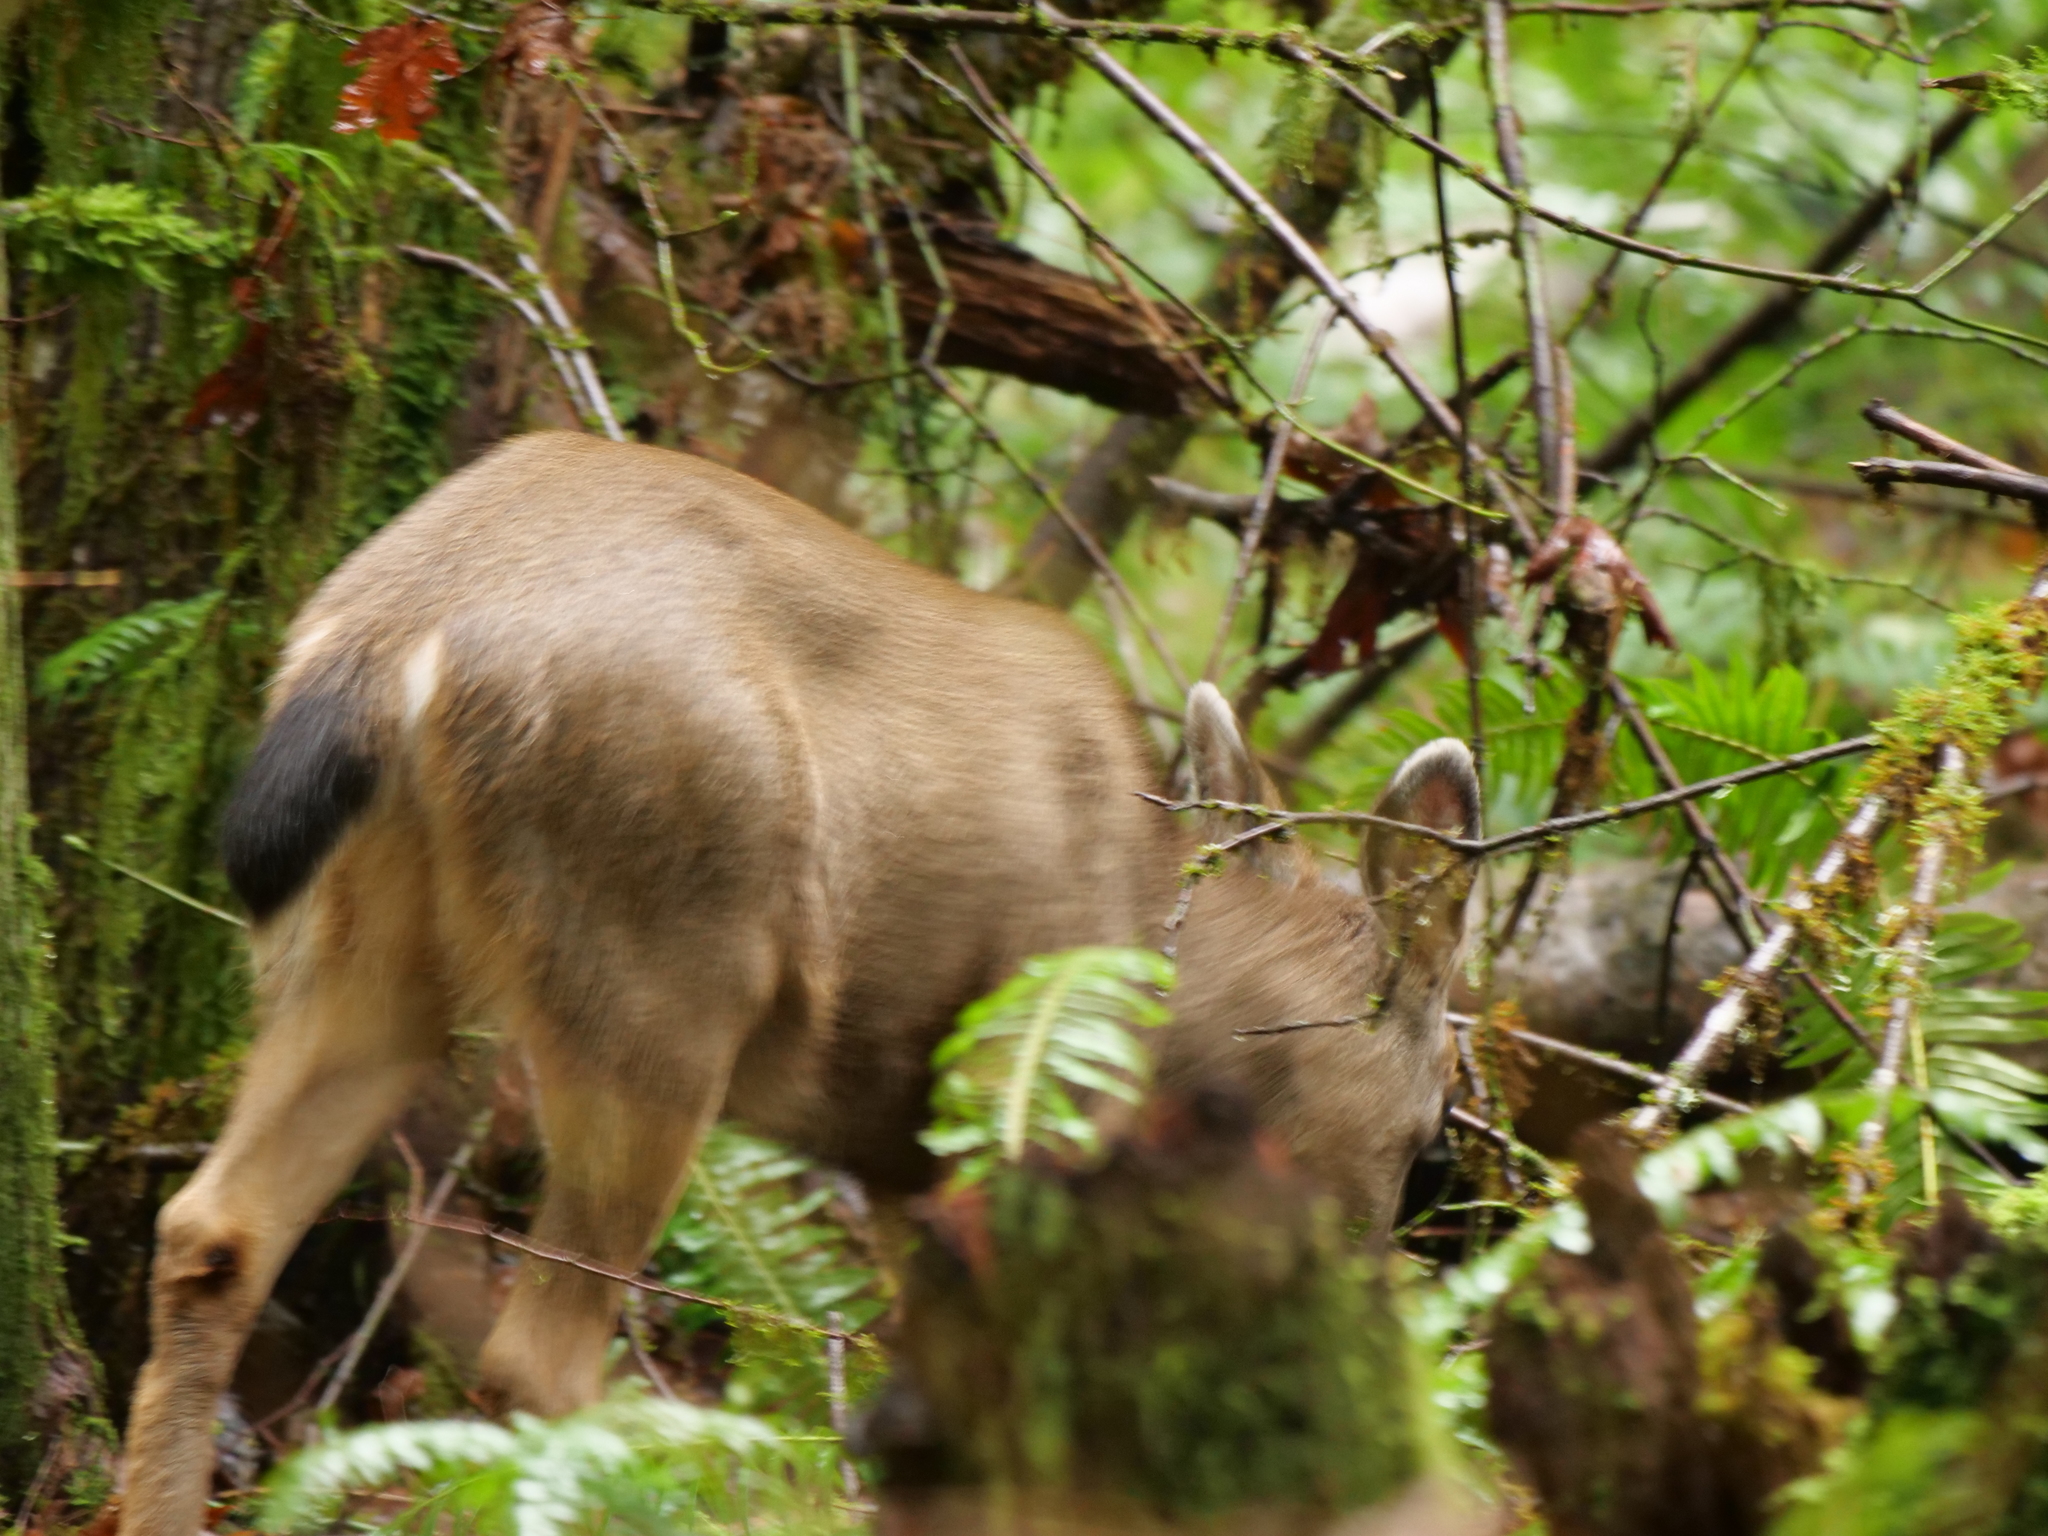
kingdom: Animalia
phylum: Chordata
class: Mammalia
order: Artiodactyla
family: Cervidae
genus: Odocoileus
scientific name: Odocoileus hemionus
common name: Mule deer
